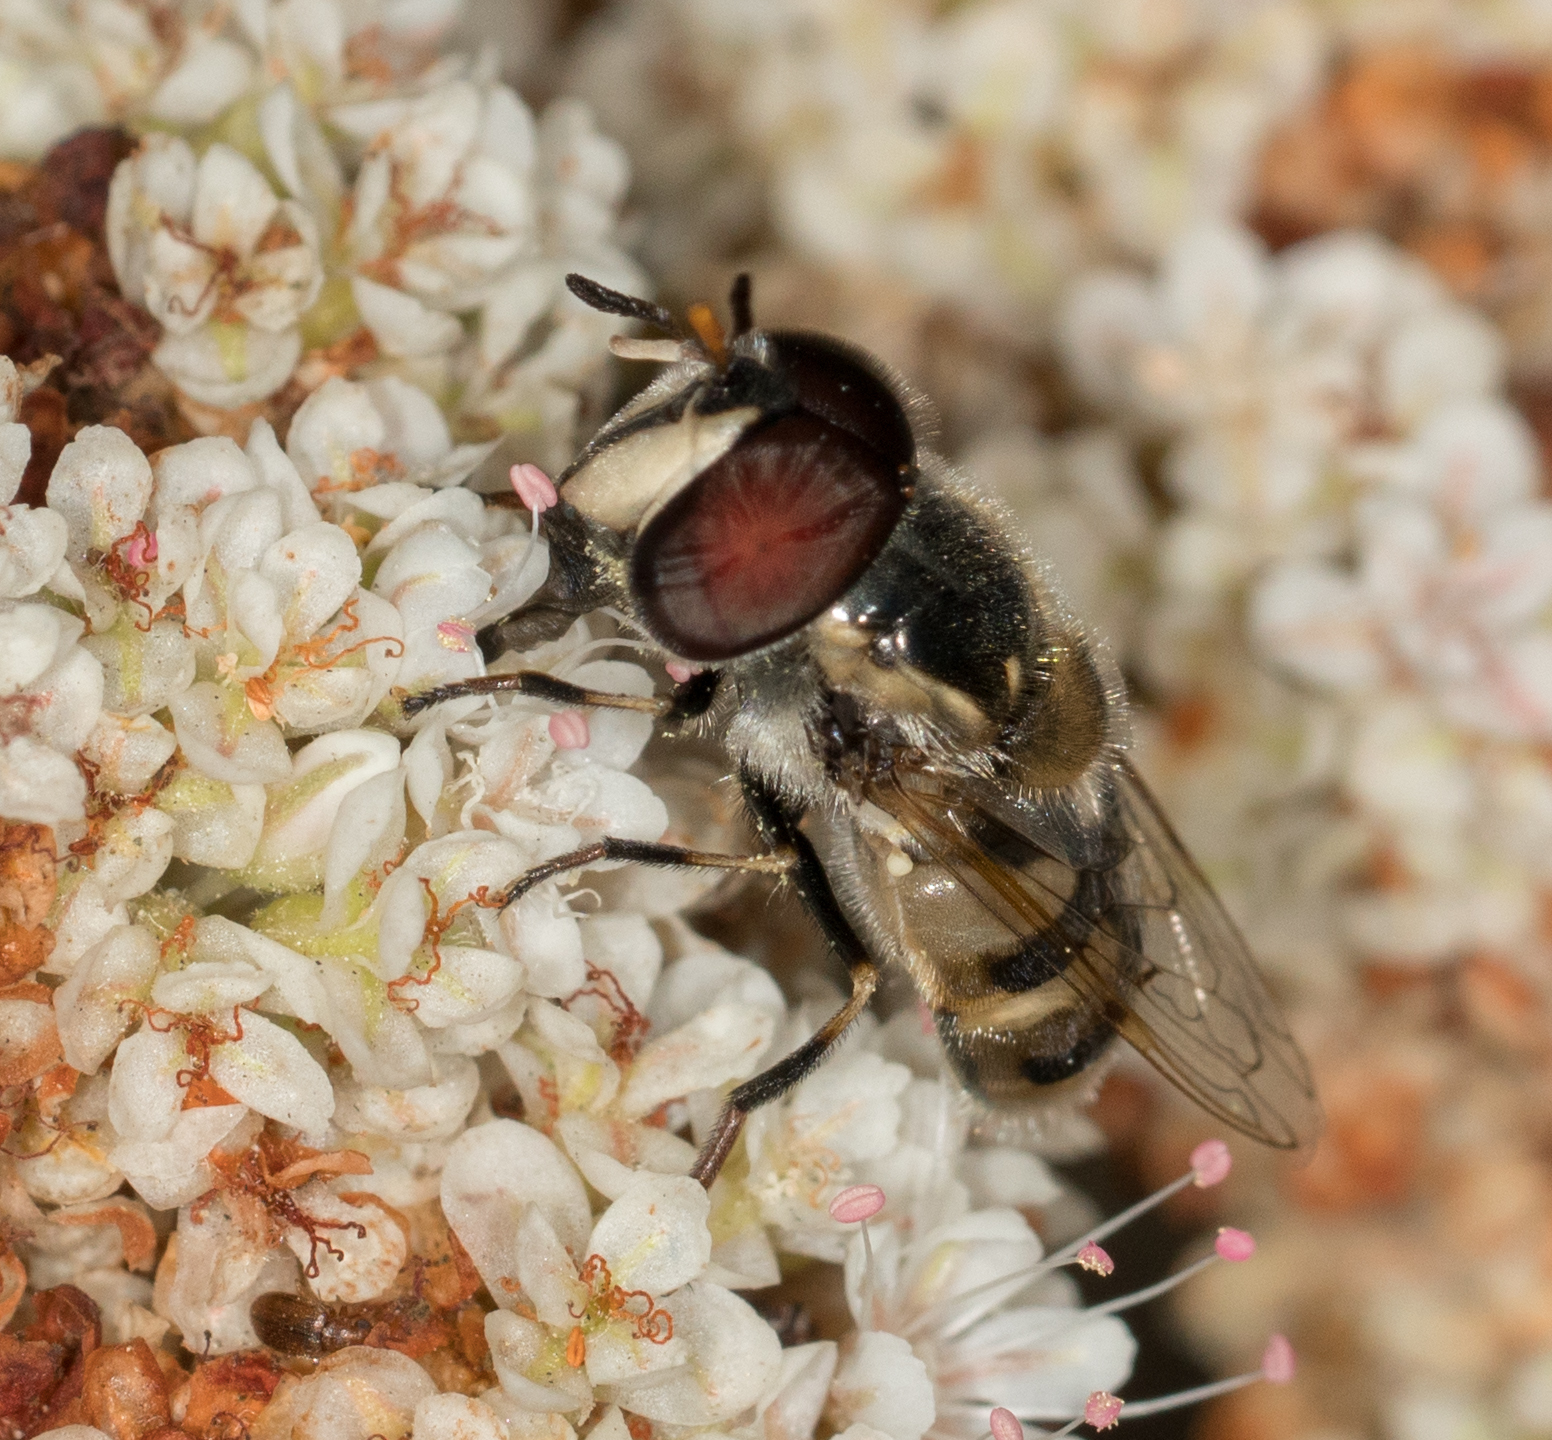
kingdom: Animalia
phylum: Arthropoda
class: Insecta
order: Diptera
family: Syrphidae
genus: Copestylum
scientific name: Copestylum marginatum
